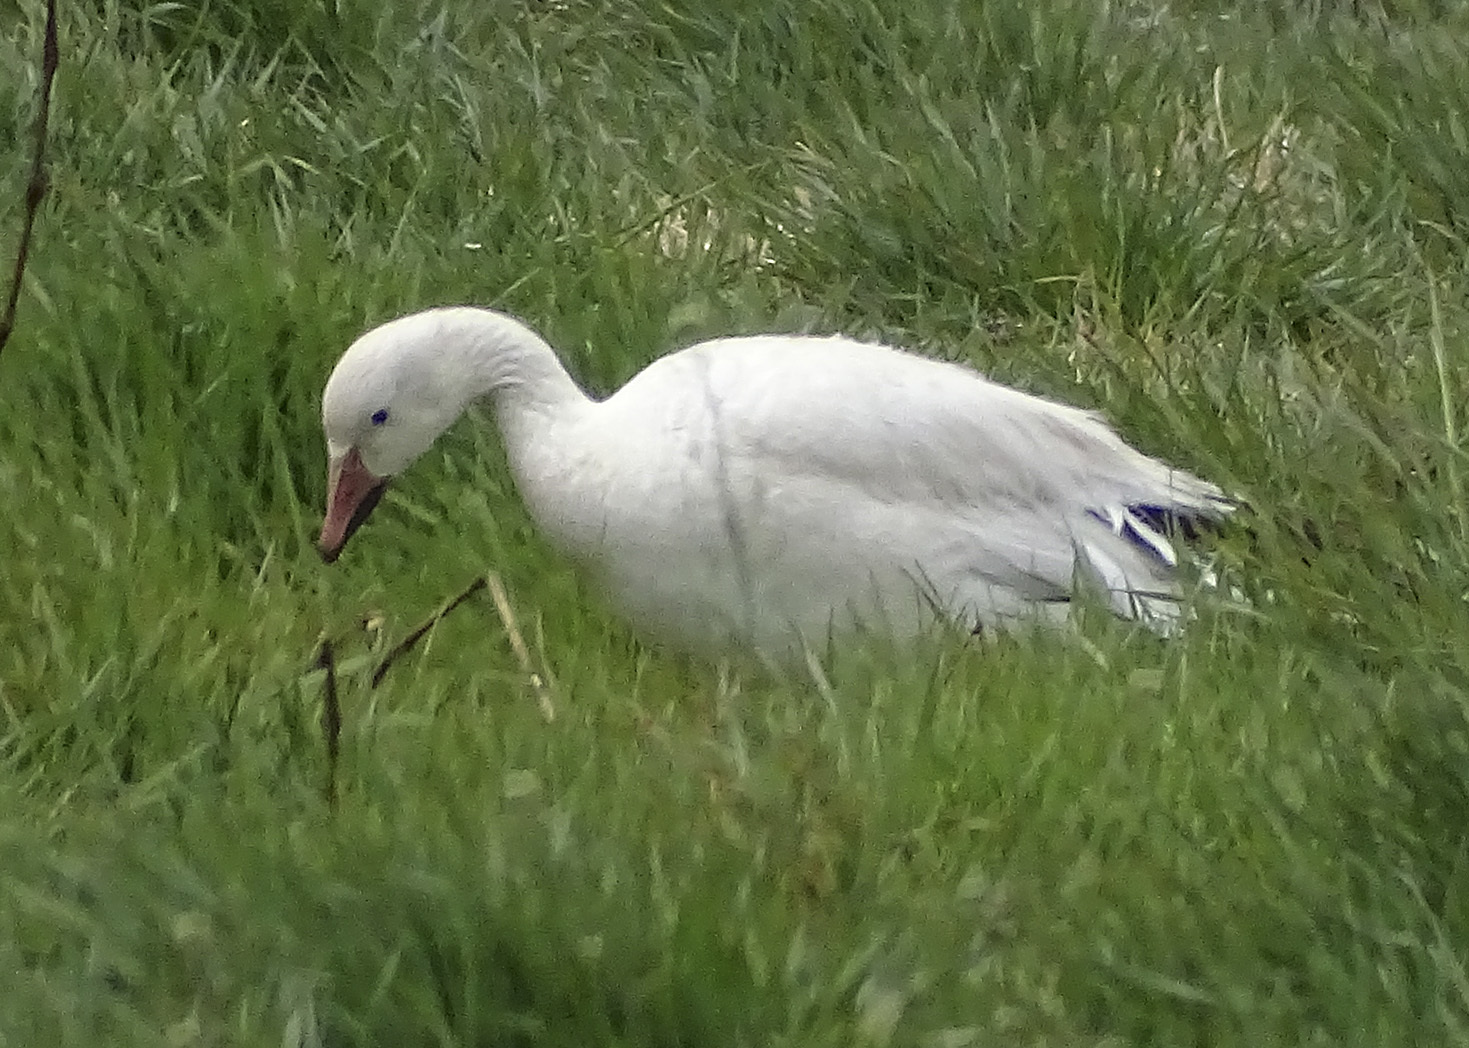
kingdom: Animalia
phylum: Chordata
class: Aves
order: Anseriformes
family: Anatidae
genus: Anser
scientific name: Anser caerulescens
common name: Snow goose
